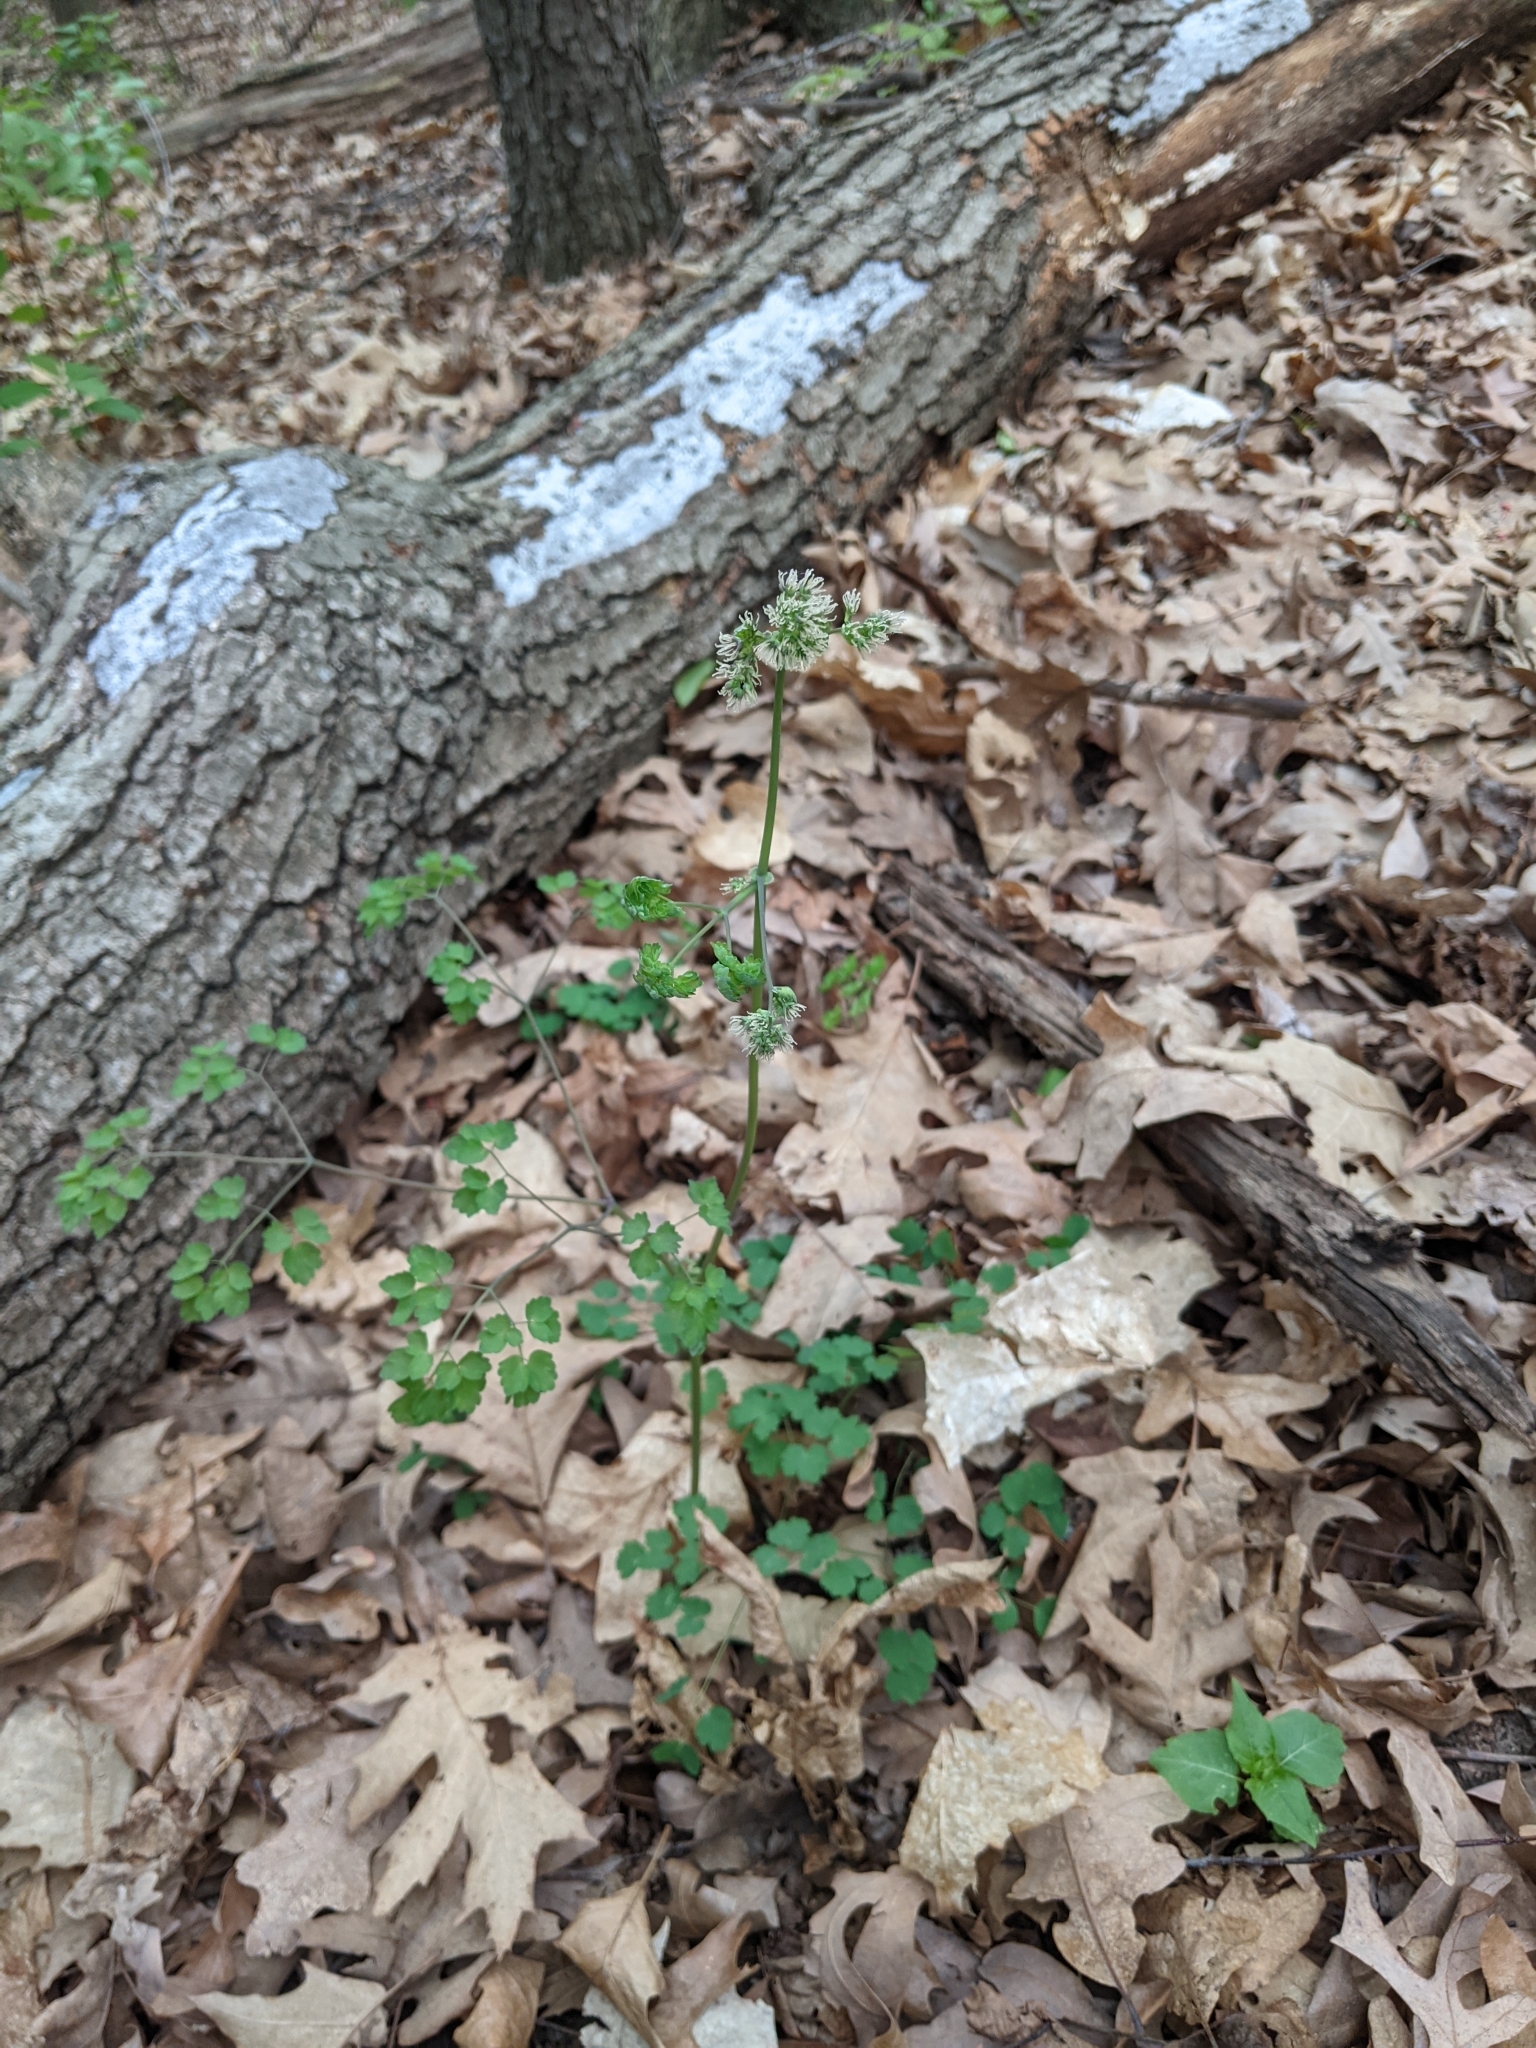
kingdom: Plantae
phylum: Tracheophyta
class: Magnoliopsida
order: Ranunculales
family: Ranunculaceae
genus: Thalictrum
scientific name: Thalictrum dioicum
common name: Early meadow-rue
